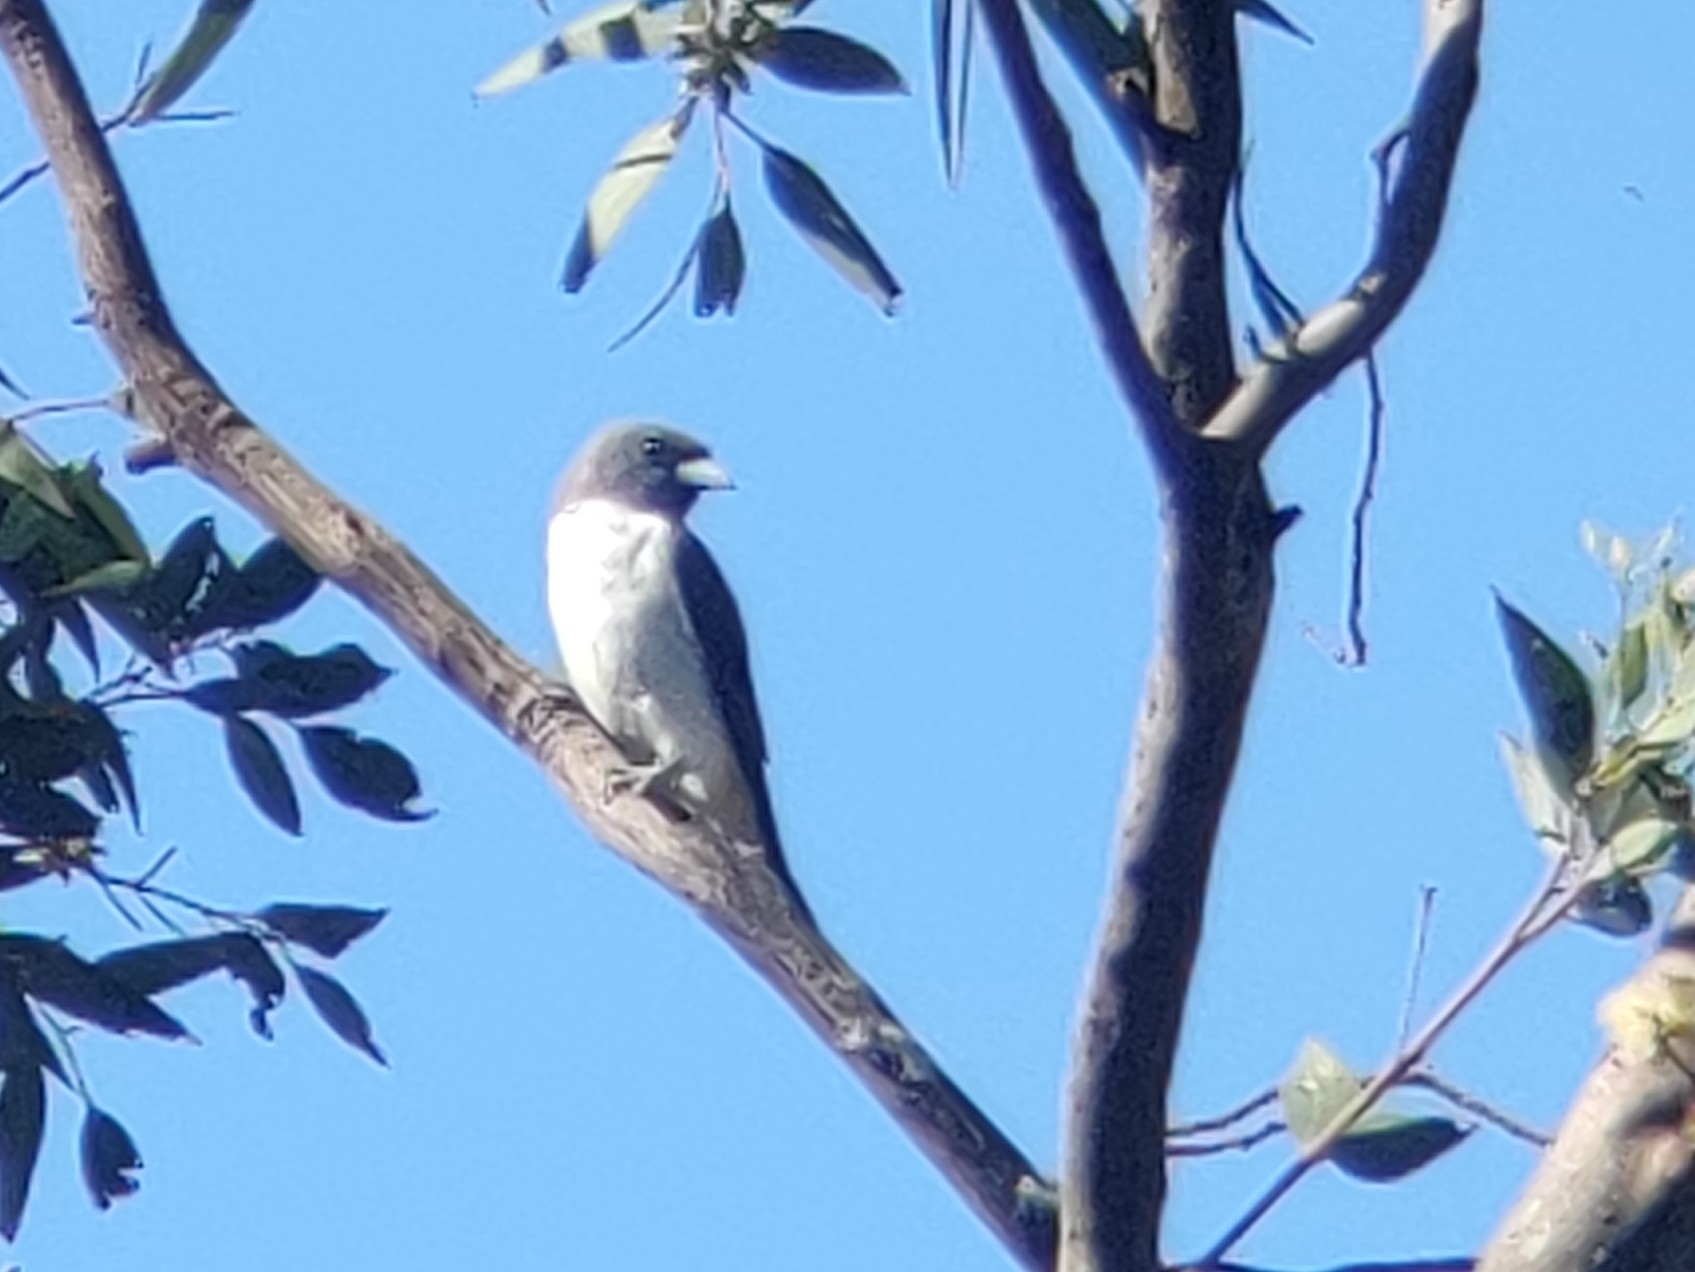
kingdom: Animalia
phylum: Chordata
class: Aves
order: Passeriformes
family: Artamidae
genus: Artamus
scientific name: Artamus leucoryn
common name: White-breasted woodswallow
